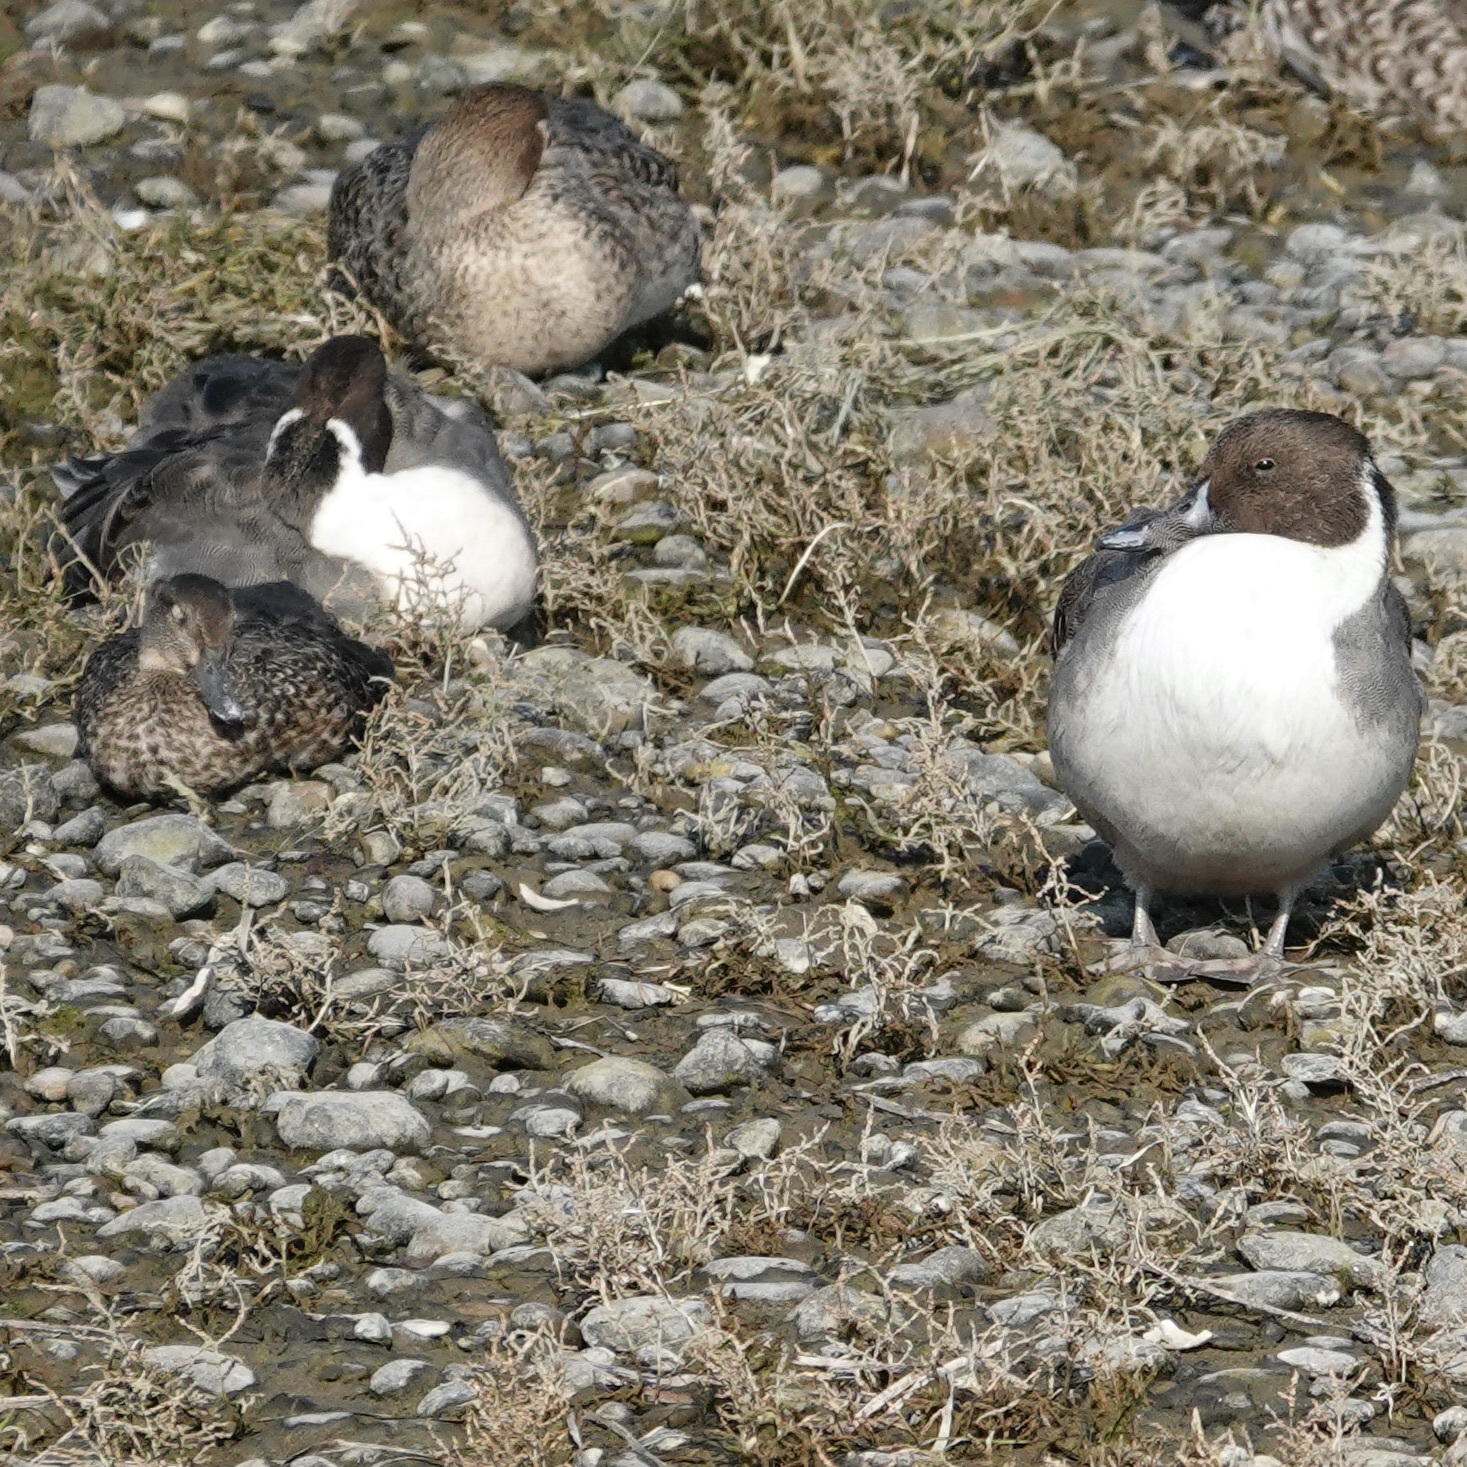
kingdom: Animalia
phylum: Chordata
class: Aves
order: Anseriformes
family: Anatidae
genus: Anas
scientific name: Anas acuta
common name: Northern pintail
